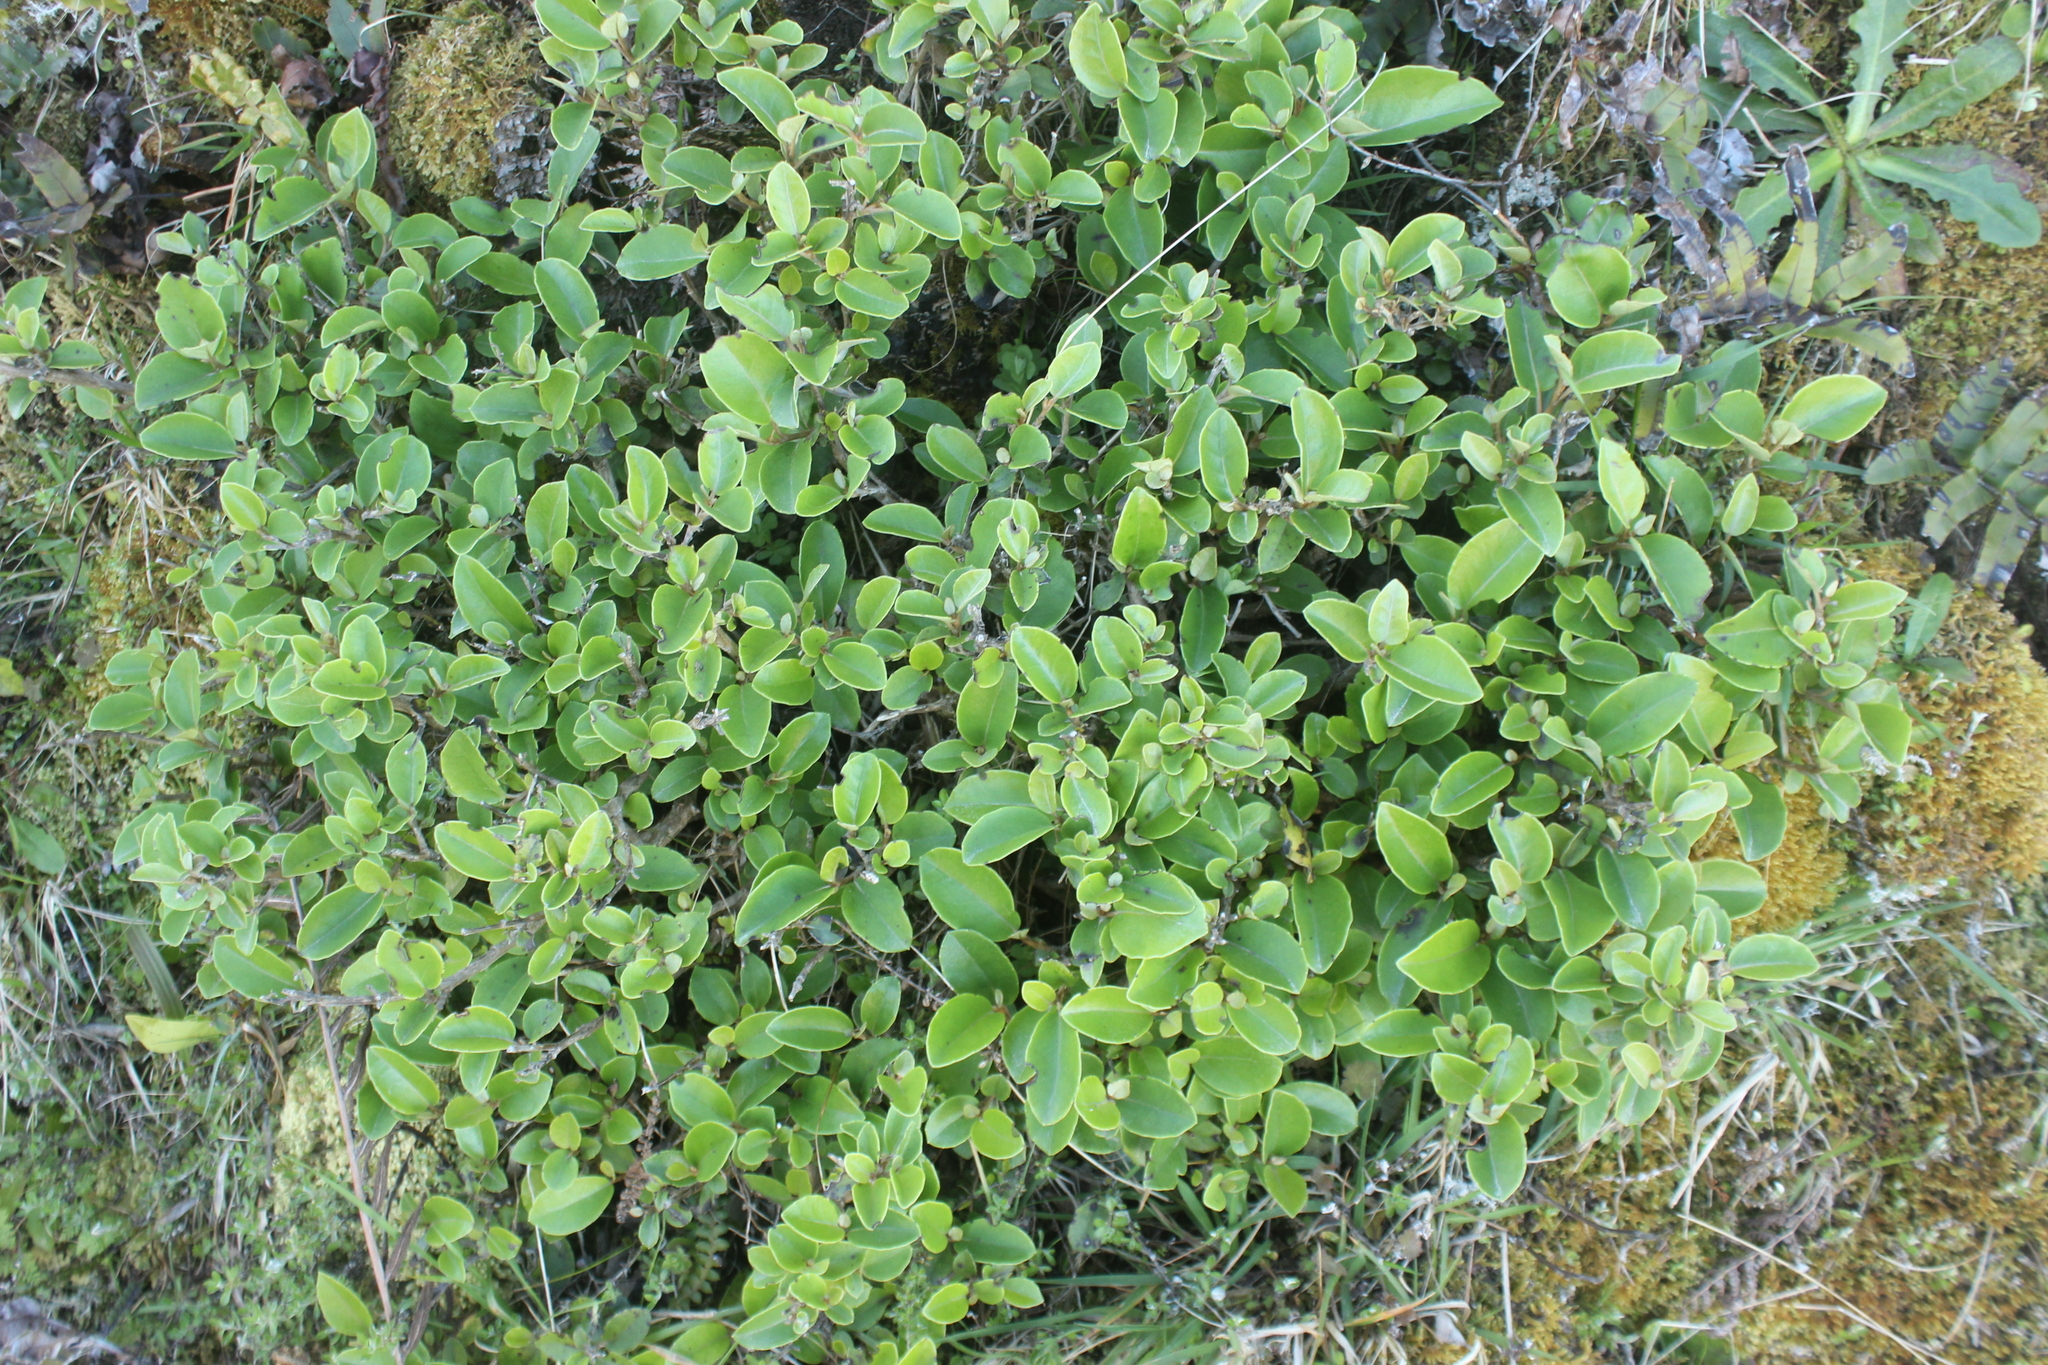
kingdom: Plantae
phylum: Tracheophyta
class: Magnoliopsida
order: Asterales
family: Asteraceae
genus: Olearia
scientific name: Olearia arborescens
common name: Glossy tree daisy
